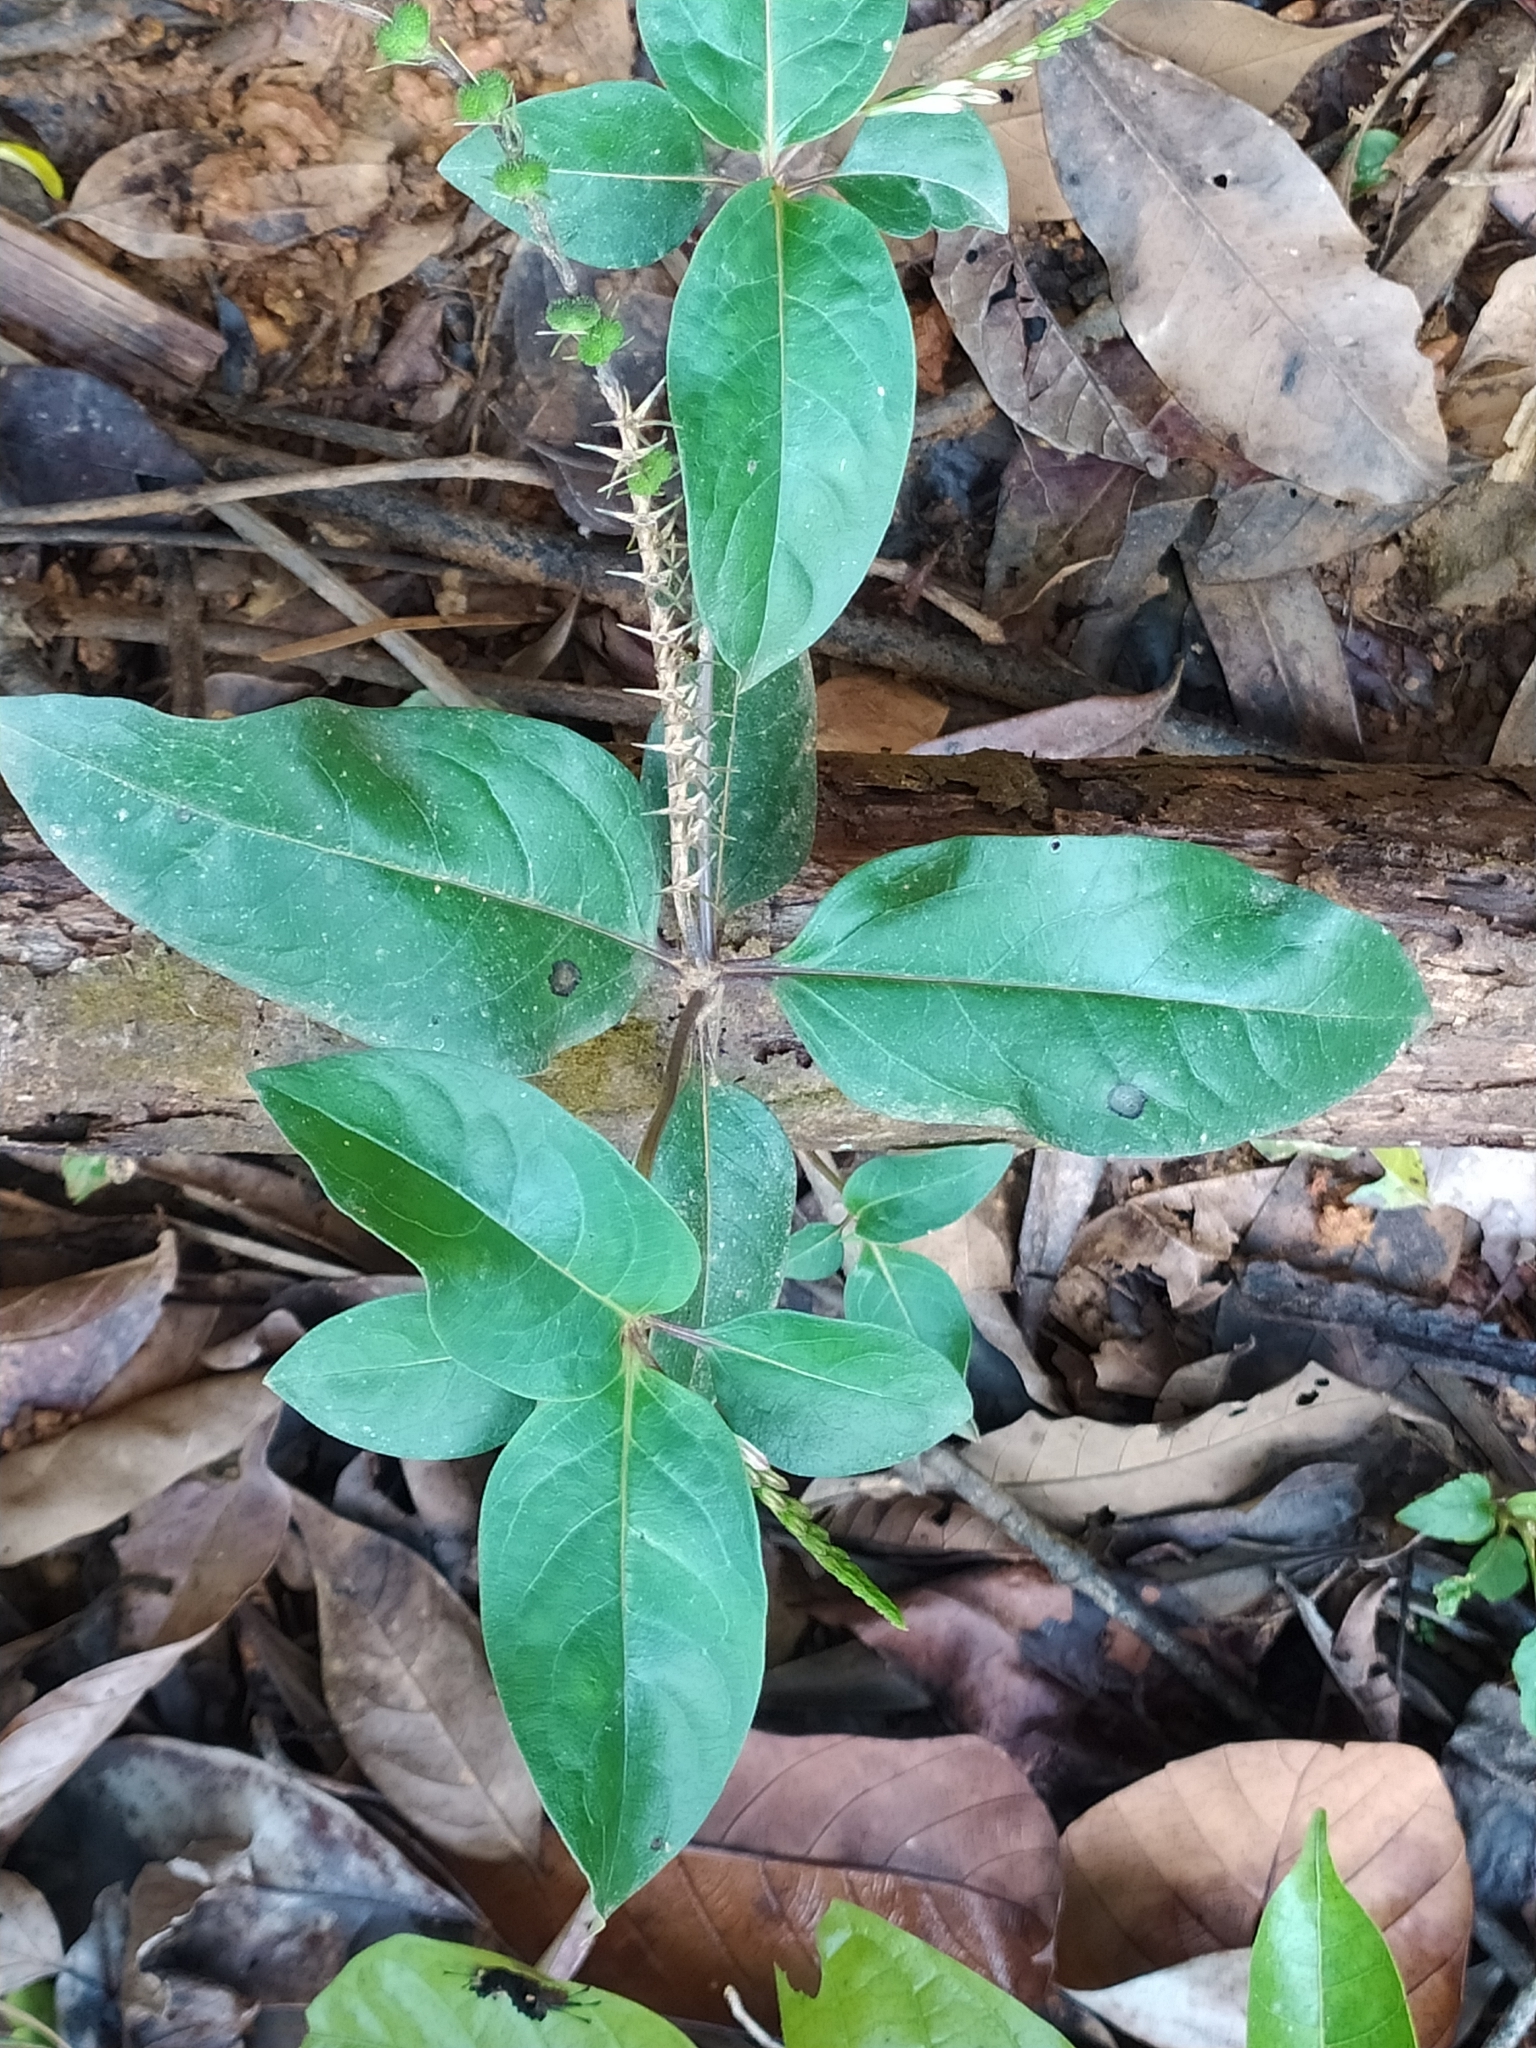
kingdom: Plantae
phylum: Tracheophyta
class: Magnoliopsida
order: Gentianales
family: Loganiaceae
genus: Spigelia
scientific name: Spigelia hamellioides
